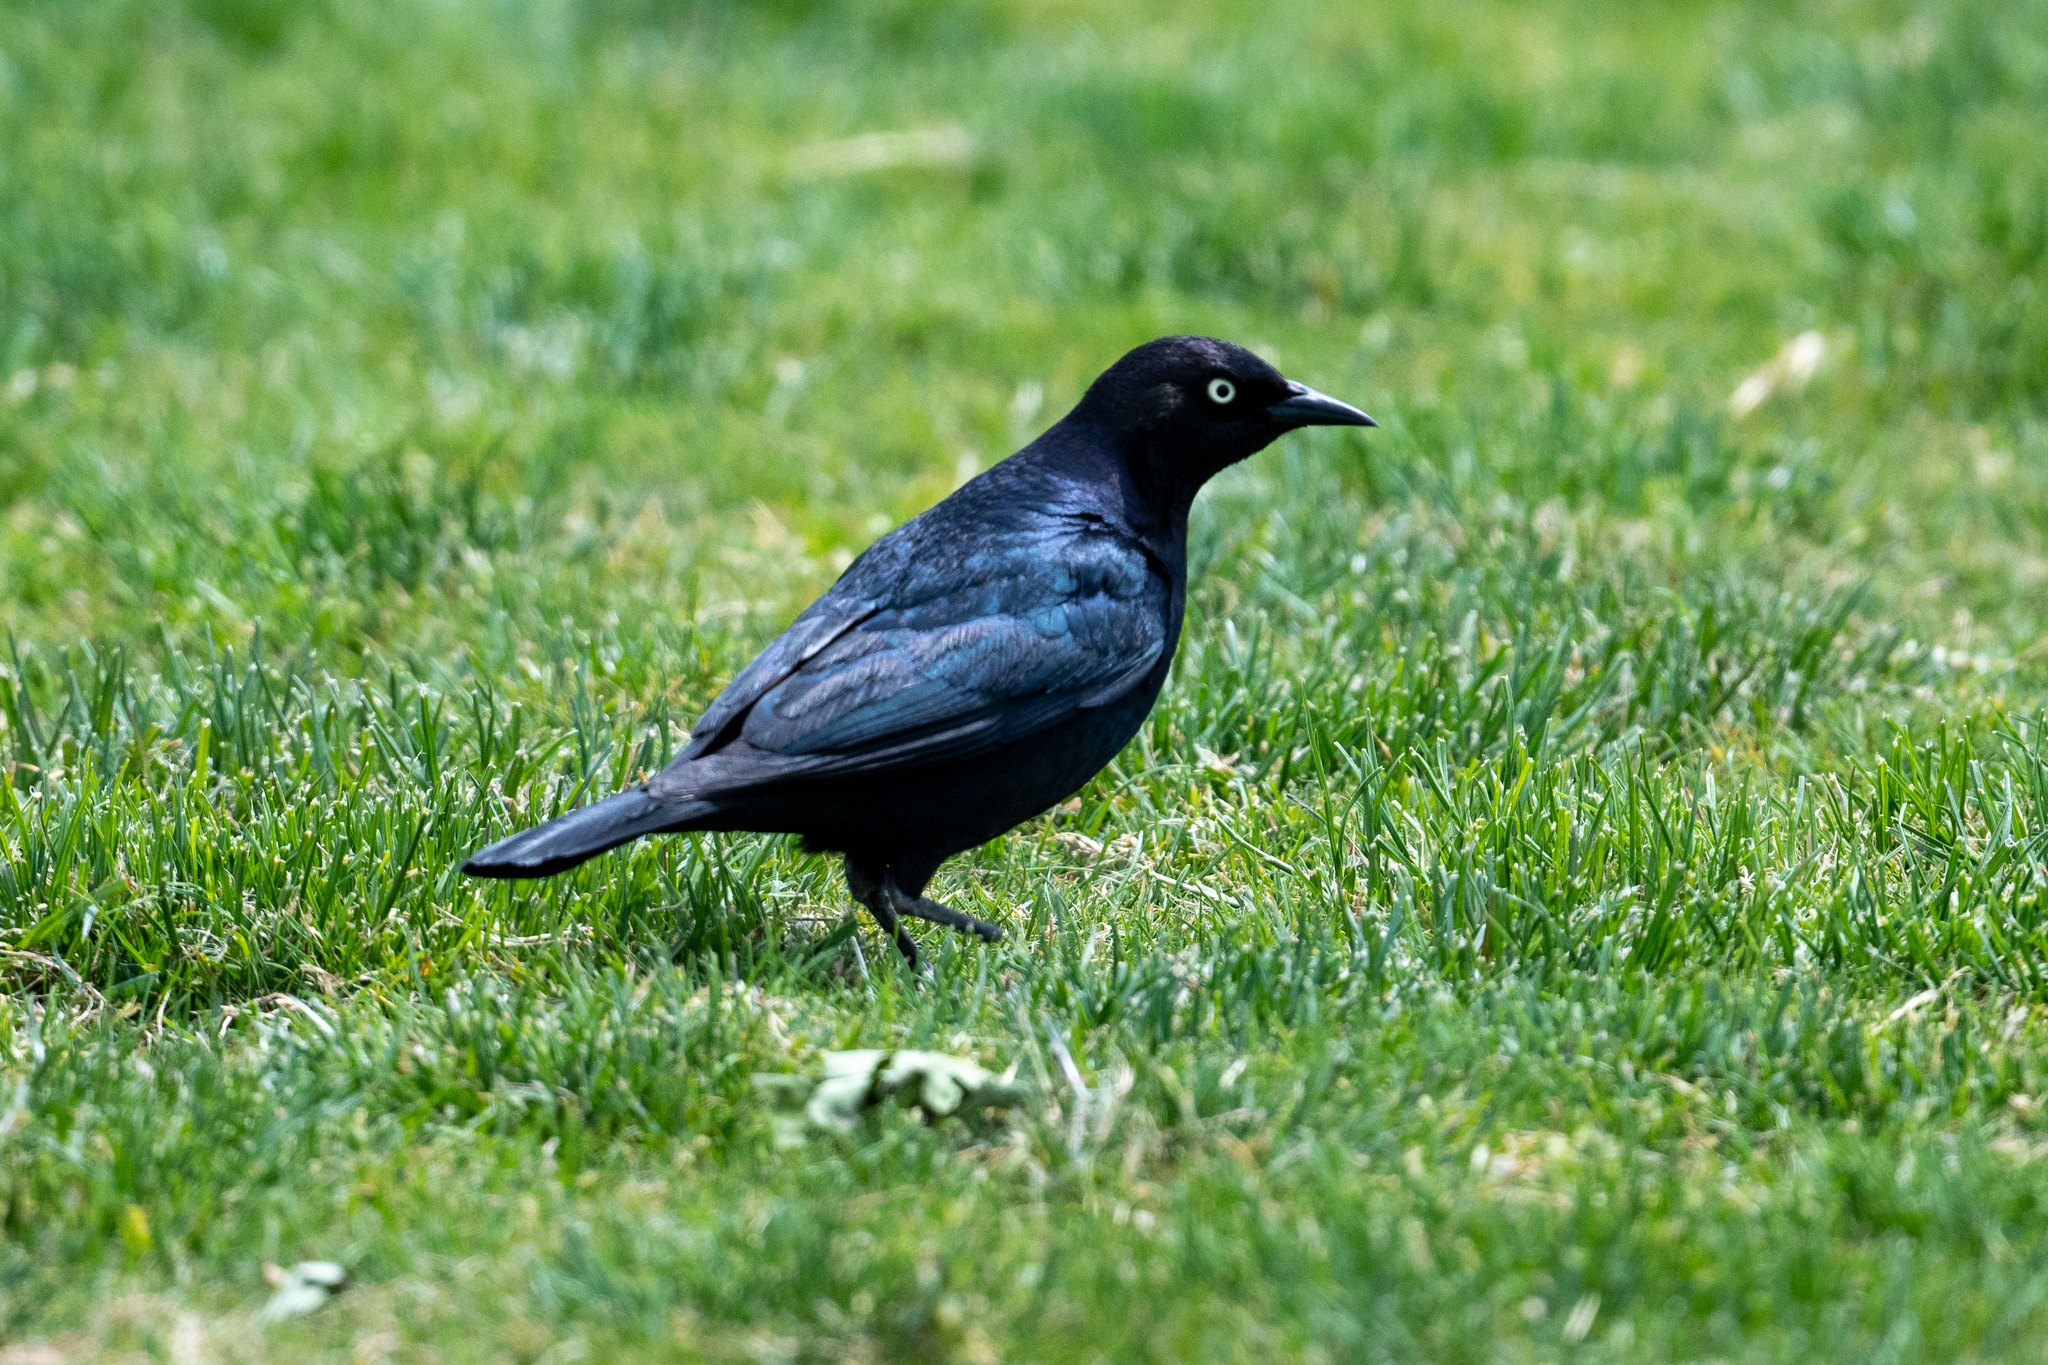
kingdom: Animalia
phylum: Chordata
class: Aves
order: Passeriformes
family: Icteridae
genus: Euphagus
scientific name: Euphagus cyanocephalus
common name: Brewer's blackbird
